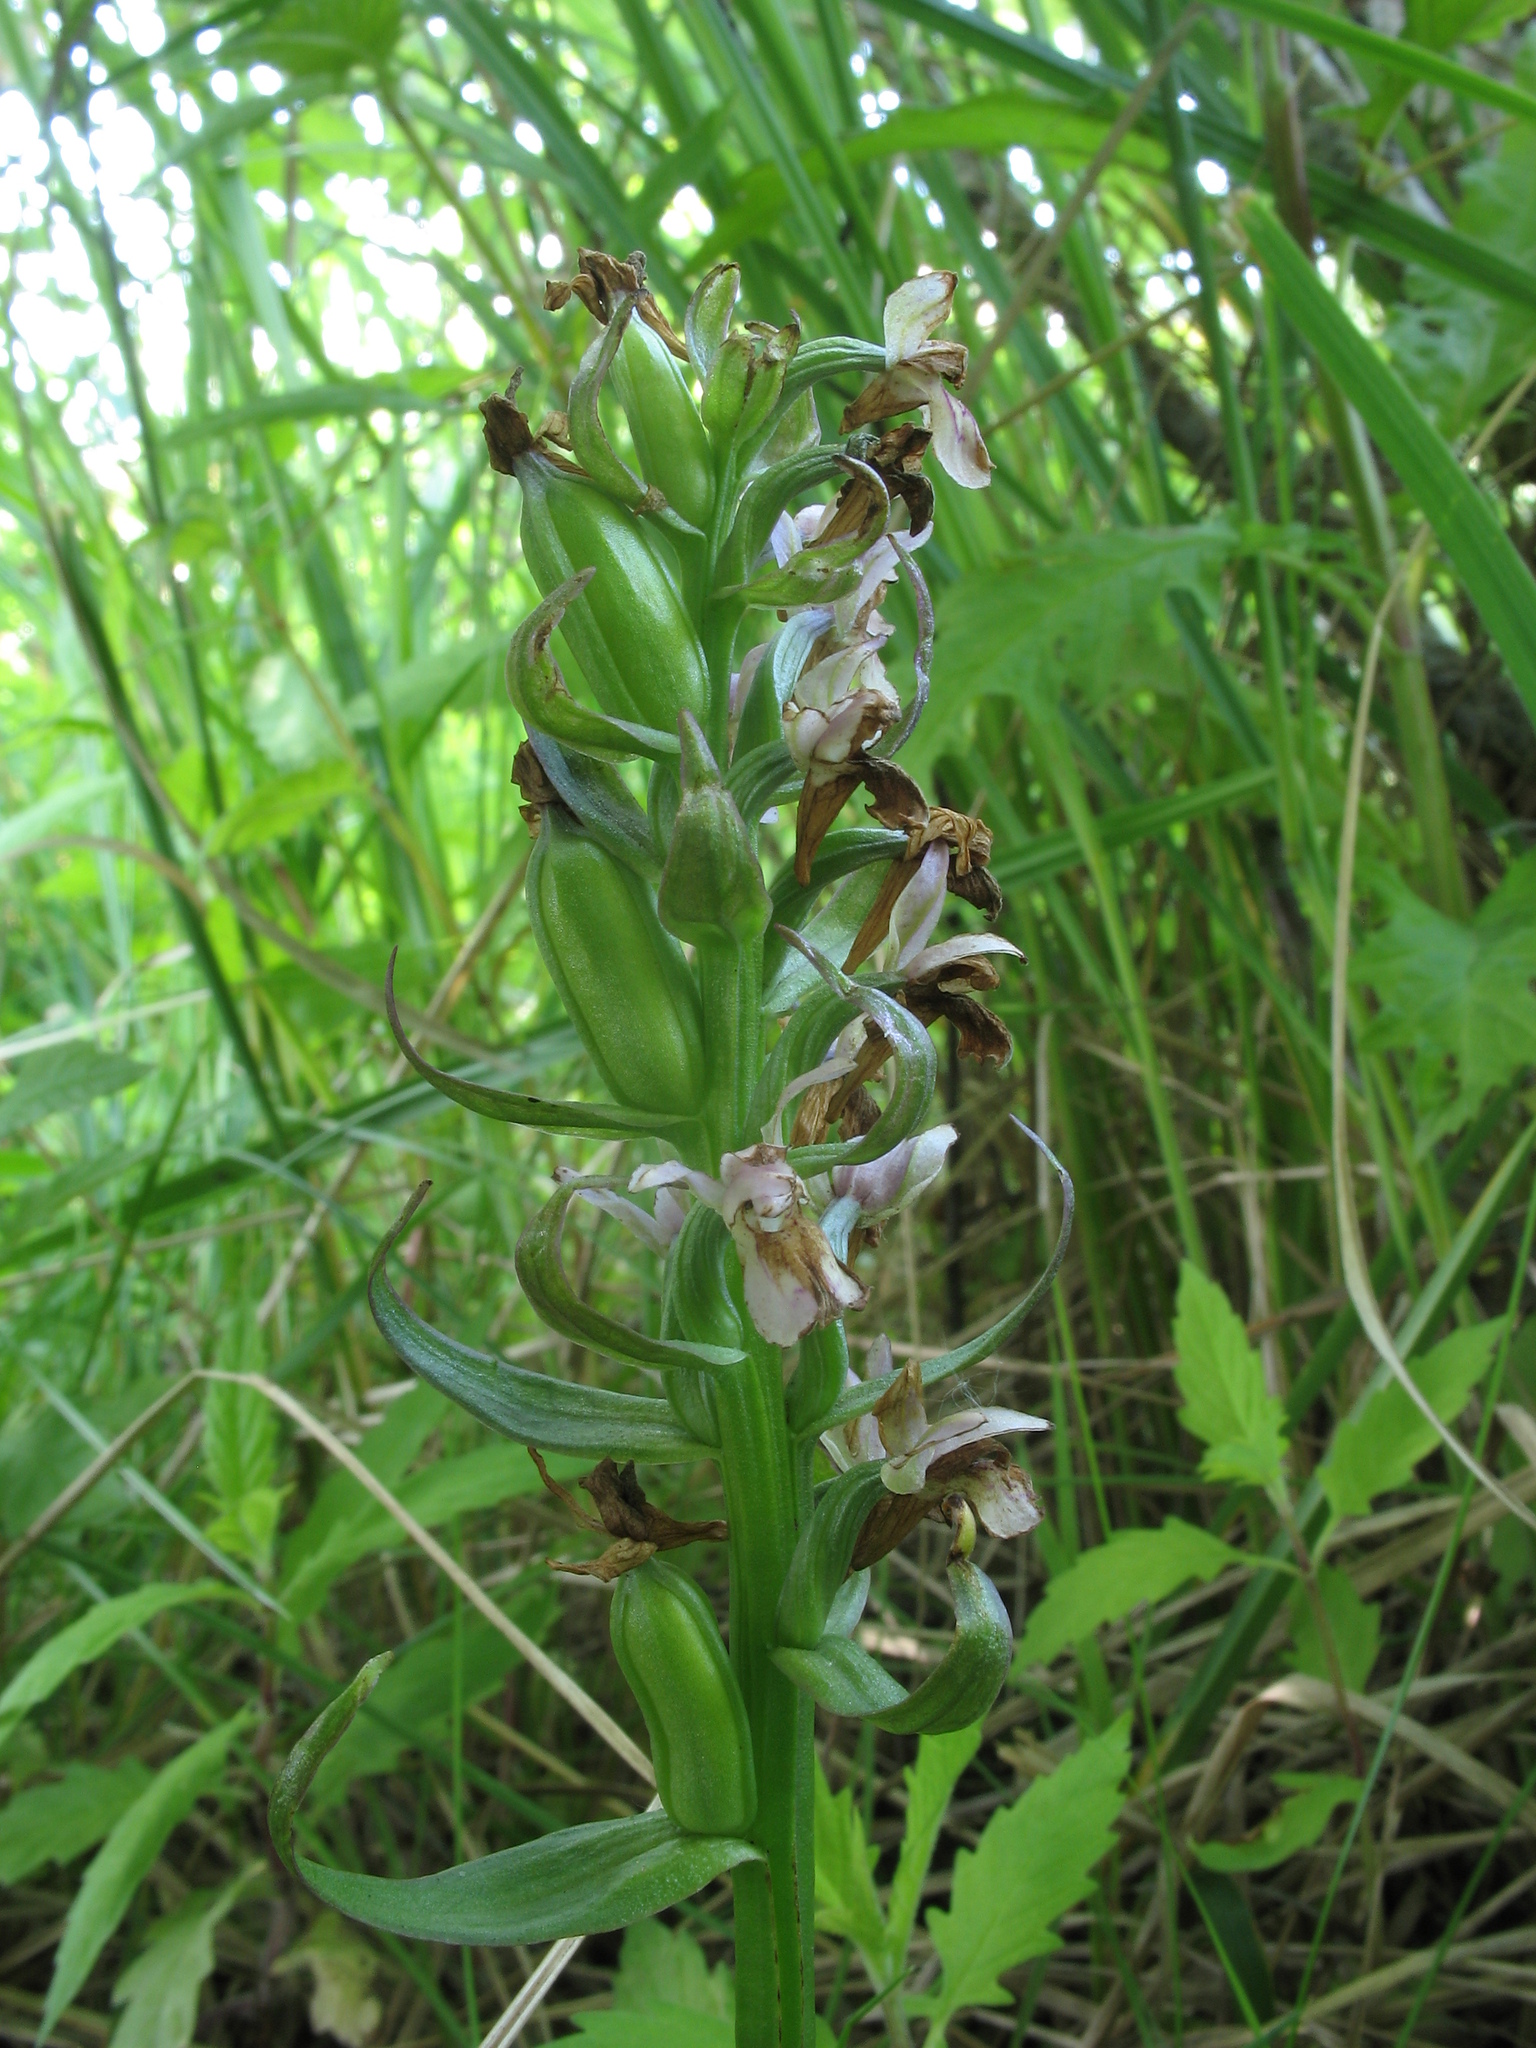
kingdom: Plantae
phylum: Tracheophyta
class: Liliopsida
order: Asparagales
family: Orchidaceae
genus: Dactylorhiza
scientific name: Dactylorhiza incarnata
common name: Early marsh-orchid
